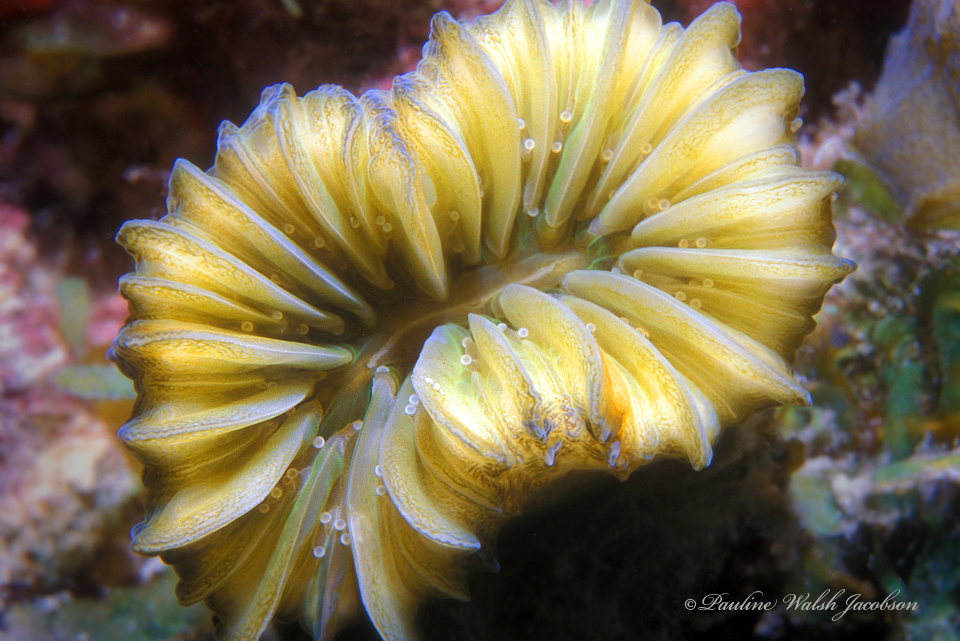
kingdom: Animalia
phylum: Cnidaria
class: Anthozoa
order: Scleractinia
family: Meandrinidae
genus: Eusmilia
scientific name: Eusmilia fastigiata
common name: Smooth flower coral
